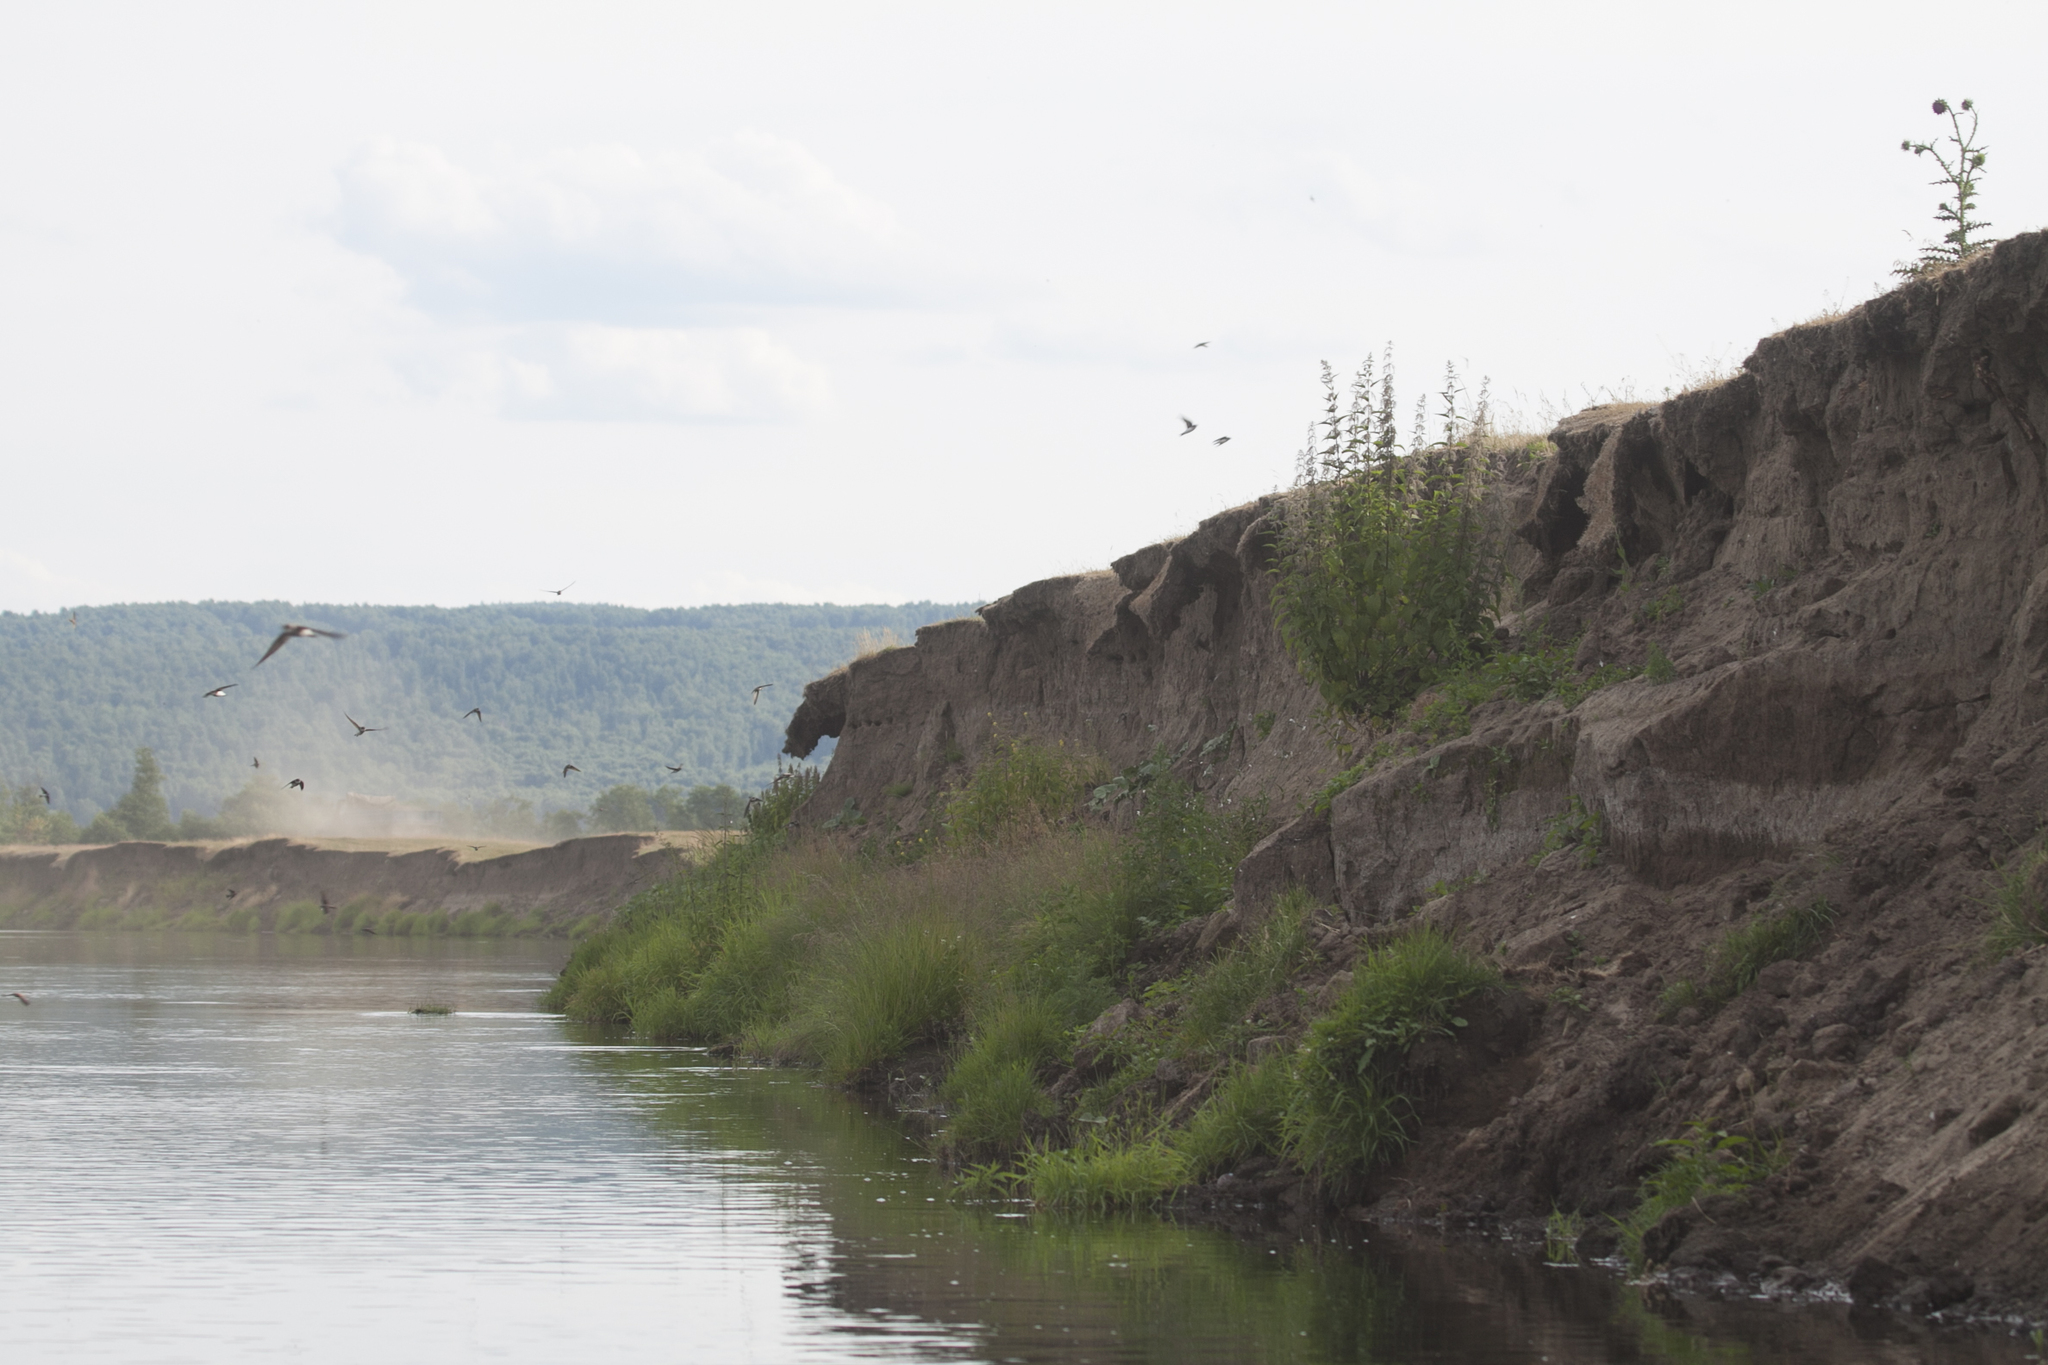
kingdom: Animalia
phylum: Chordata
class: Aves
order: Passeriformes
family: Hirundinidae
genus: Riparia
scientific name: Riparia riparia
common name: Sand martin
